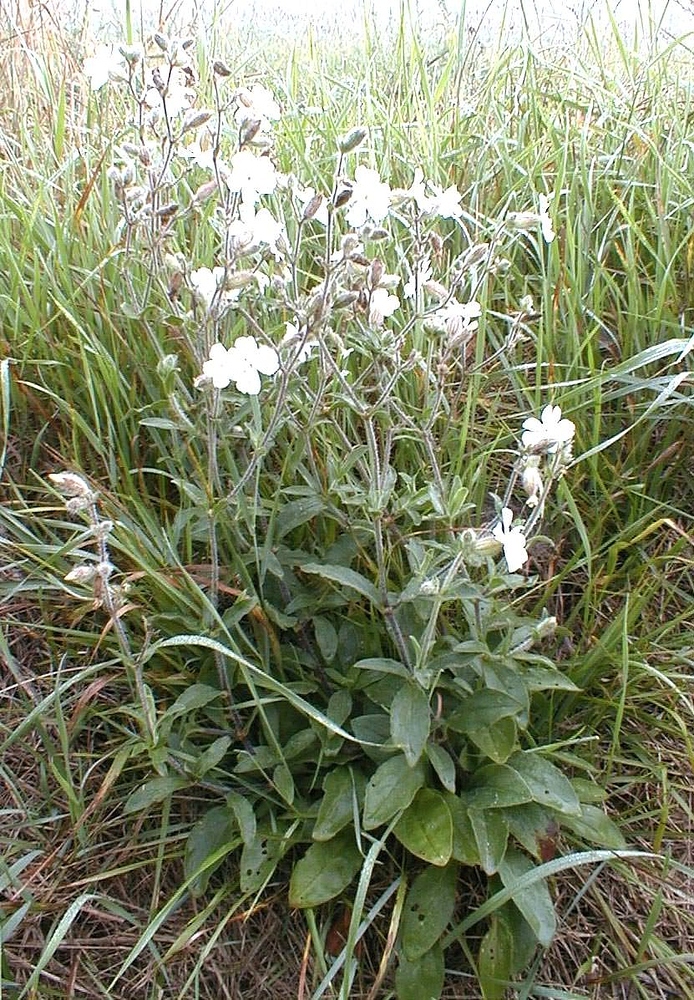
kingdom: Plantae
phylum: Tracheophyta
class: Magnoliopsida
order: Caryophyllales
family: Caryophyllaceae
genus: Silene
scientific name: Silene latifolia
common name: White campion
